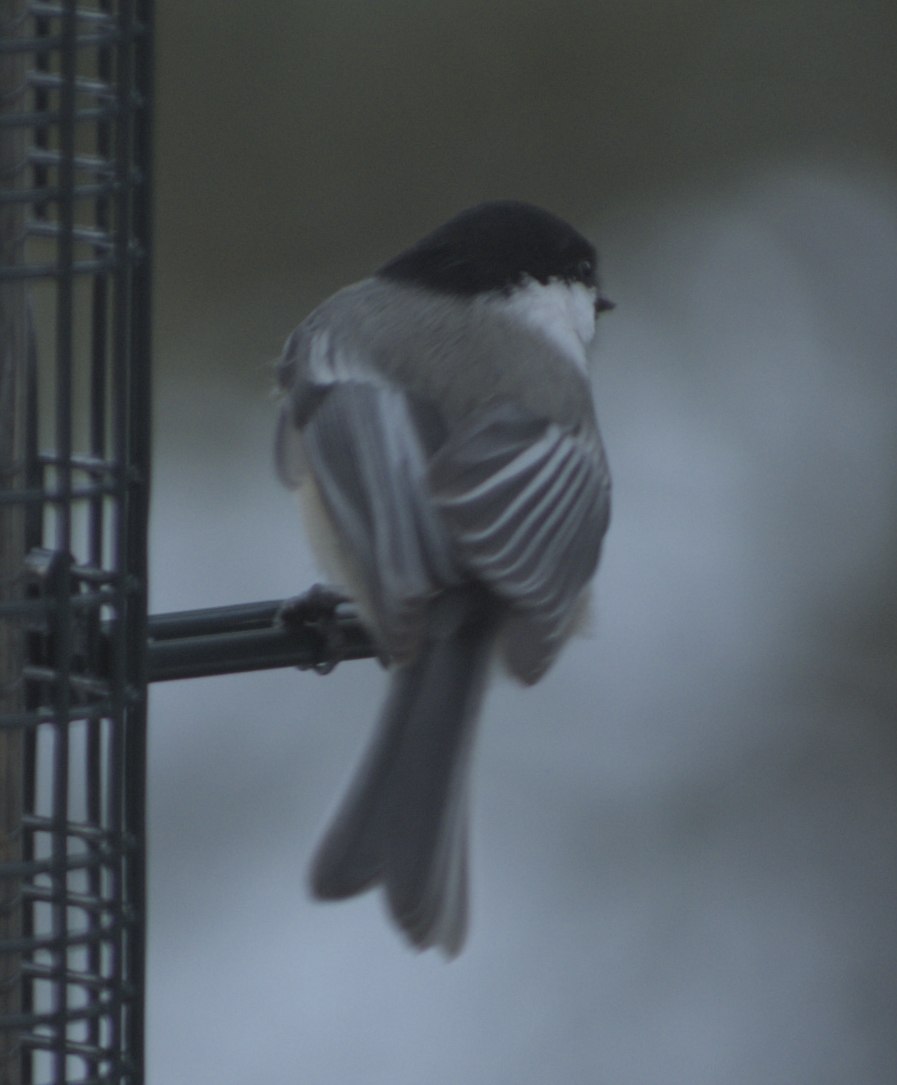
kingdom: Animalia
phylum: Chordata
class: Aves
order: Passeriformes
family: Paridae
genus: Poecile
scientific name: Poecile atricapillus
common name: Black-capped chickadee
